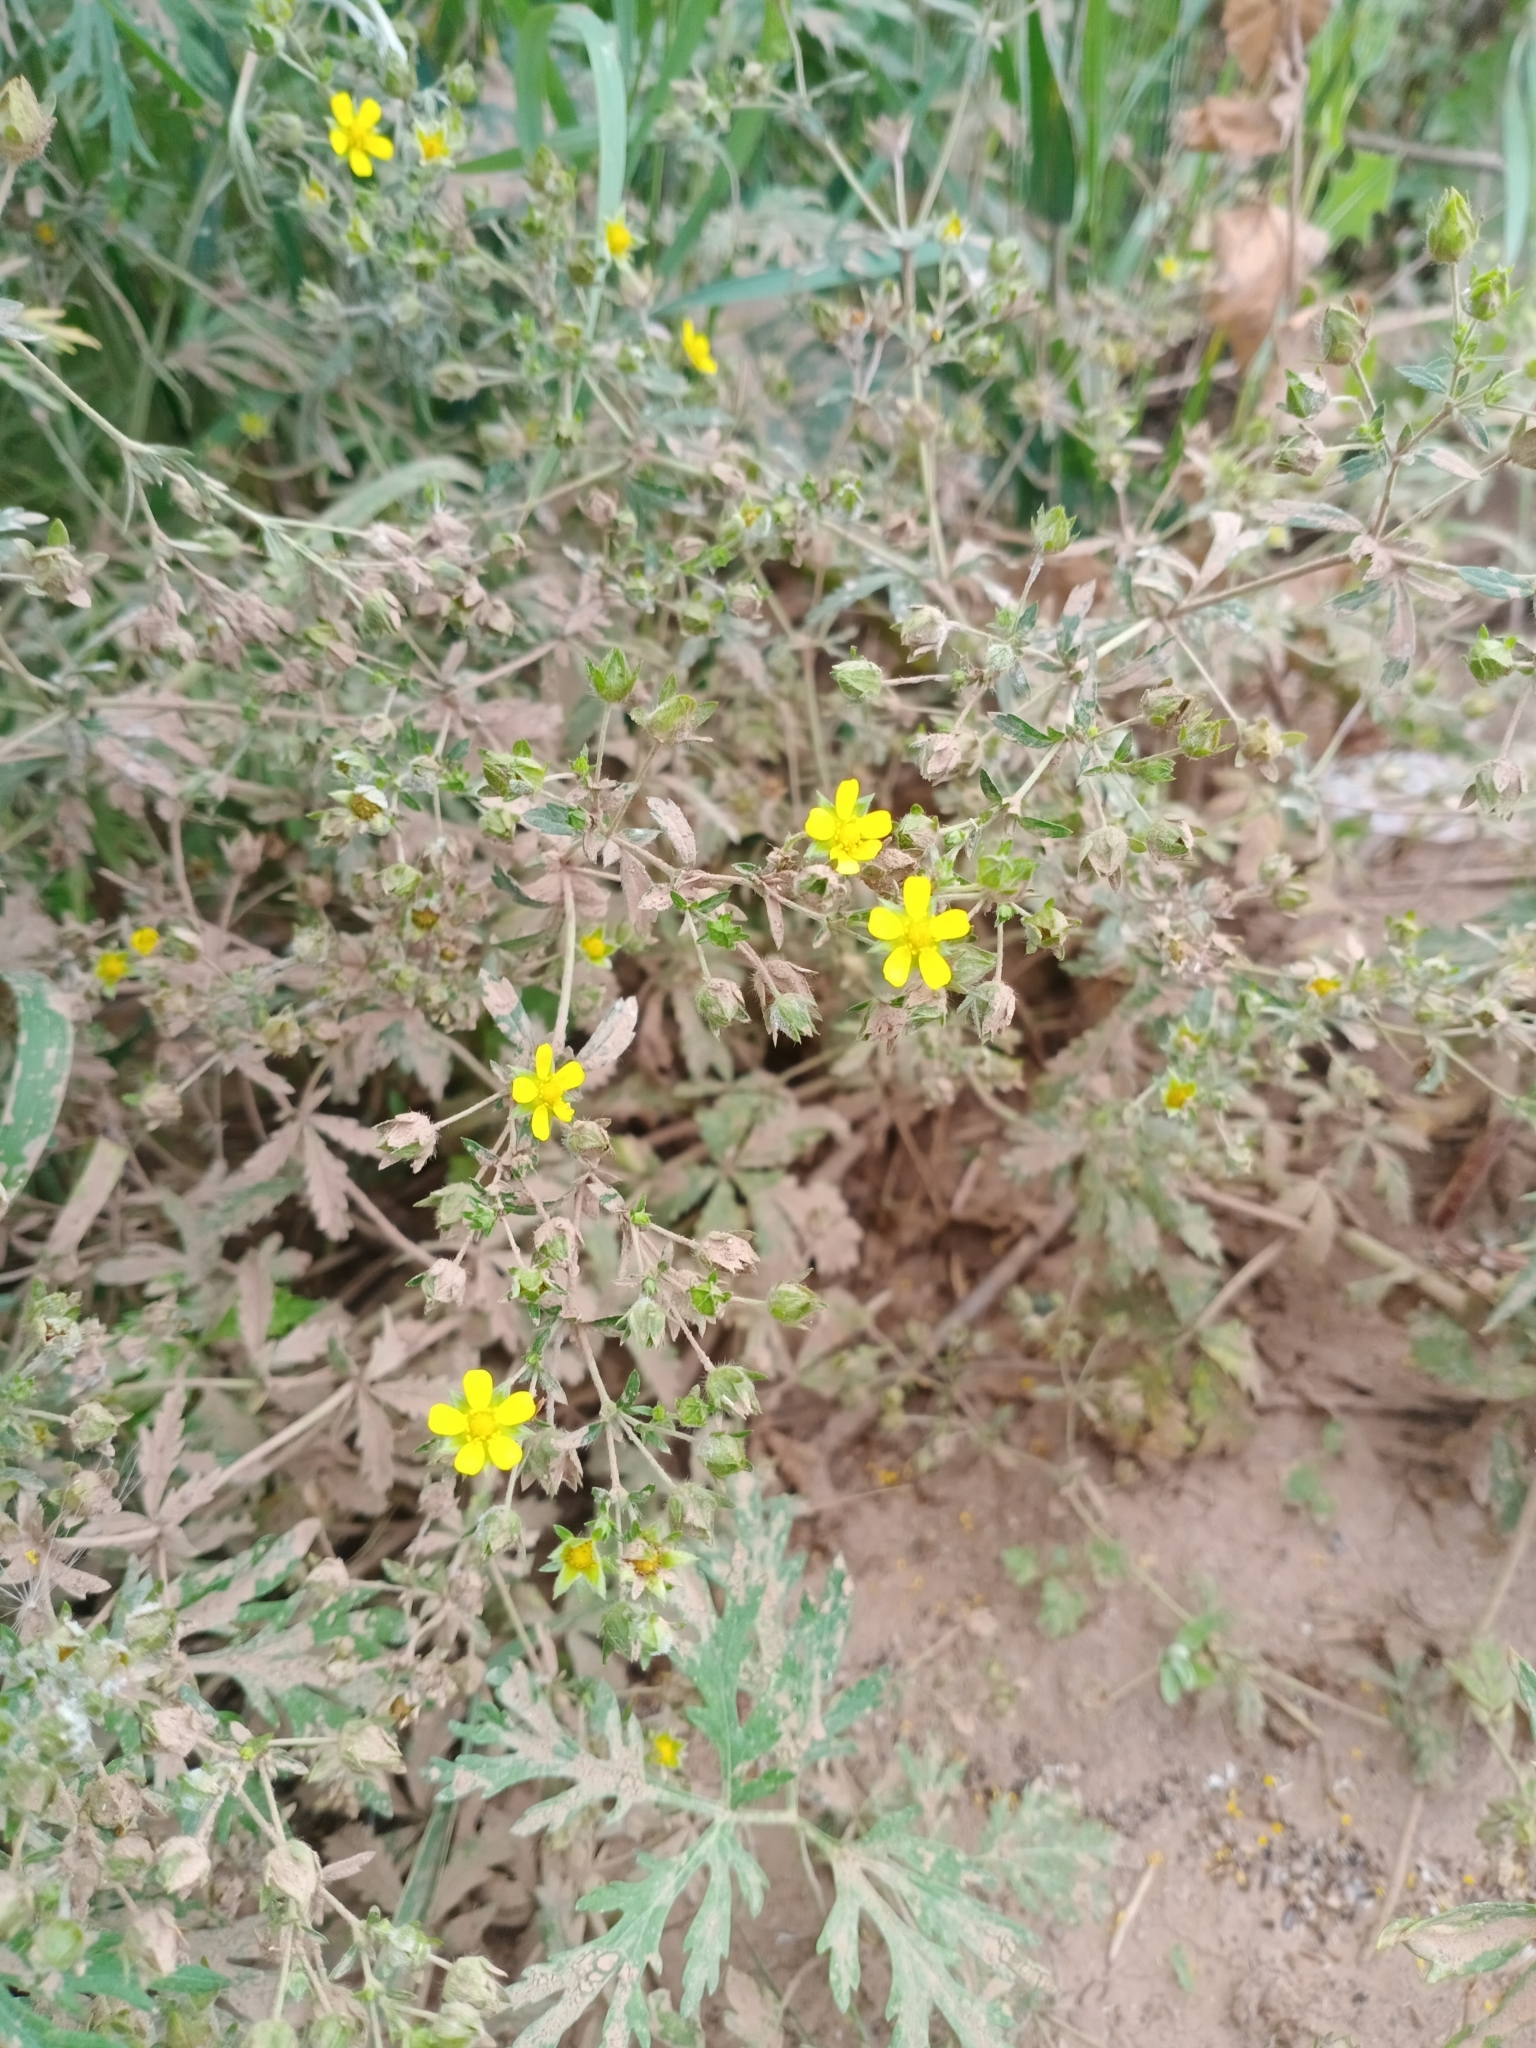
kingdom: Plantae
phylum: Tracheophyta
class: Magnoliopsida
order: Rosales
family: Rosaceae
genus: Potentilla
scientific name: Potentilla argentea
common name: Hoary cinquefoil
